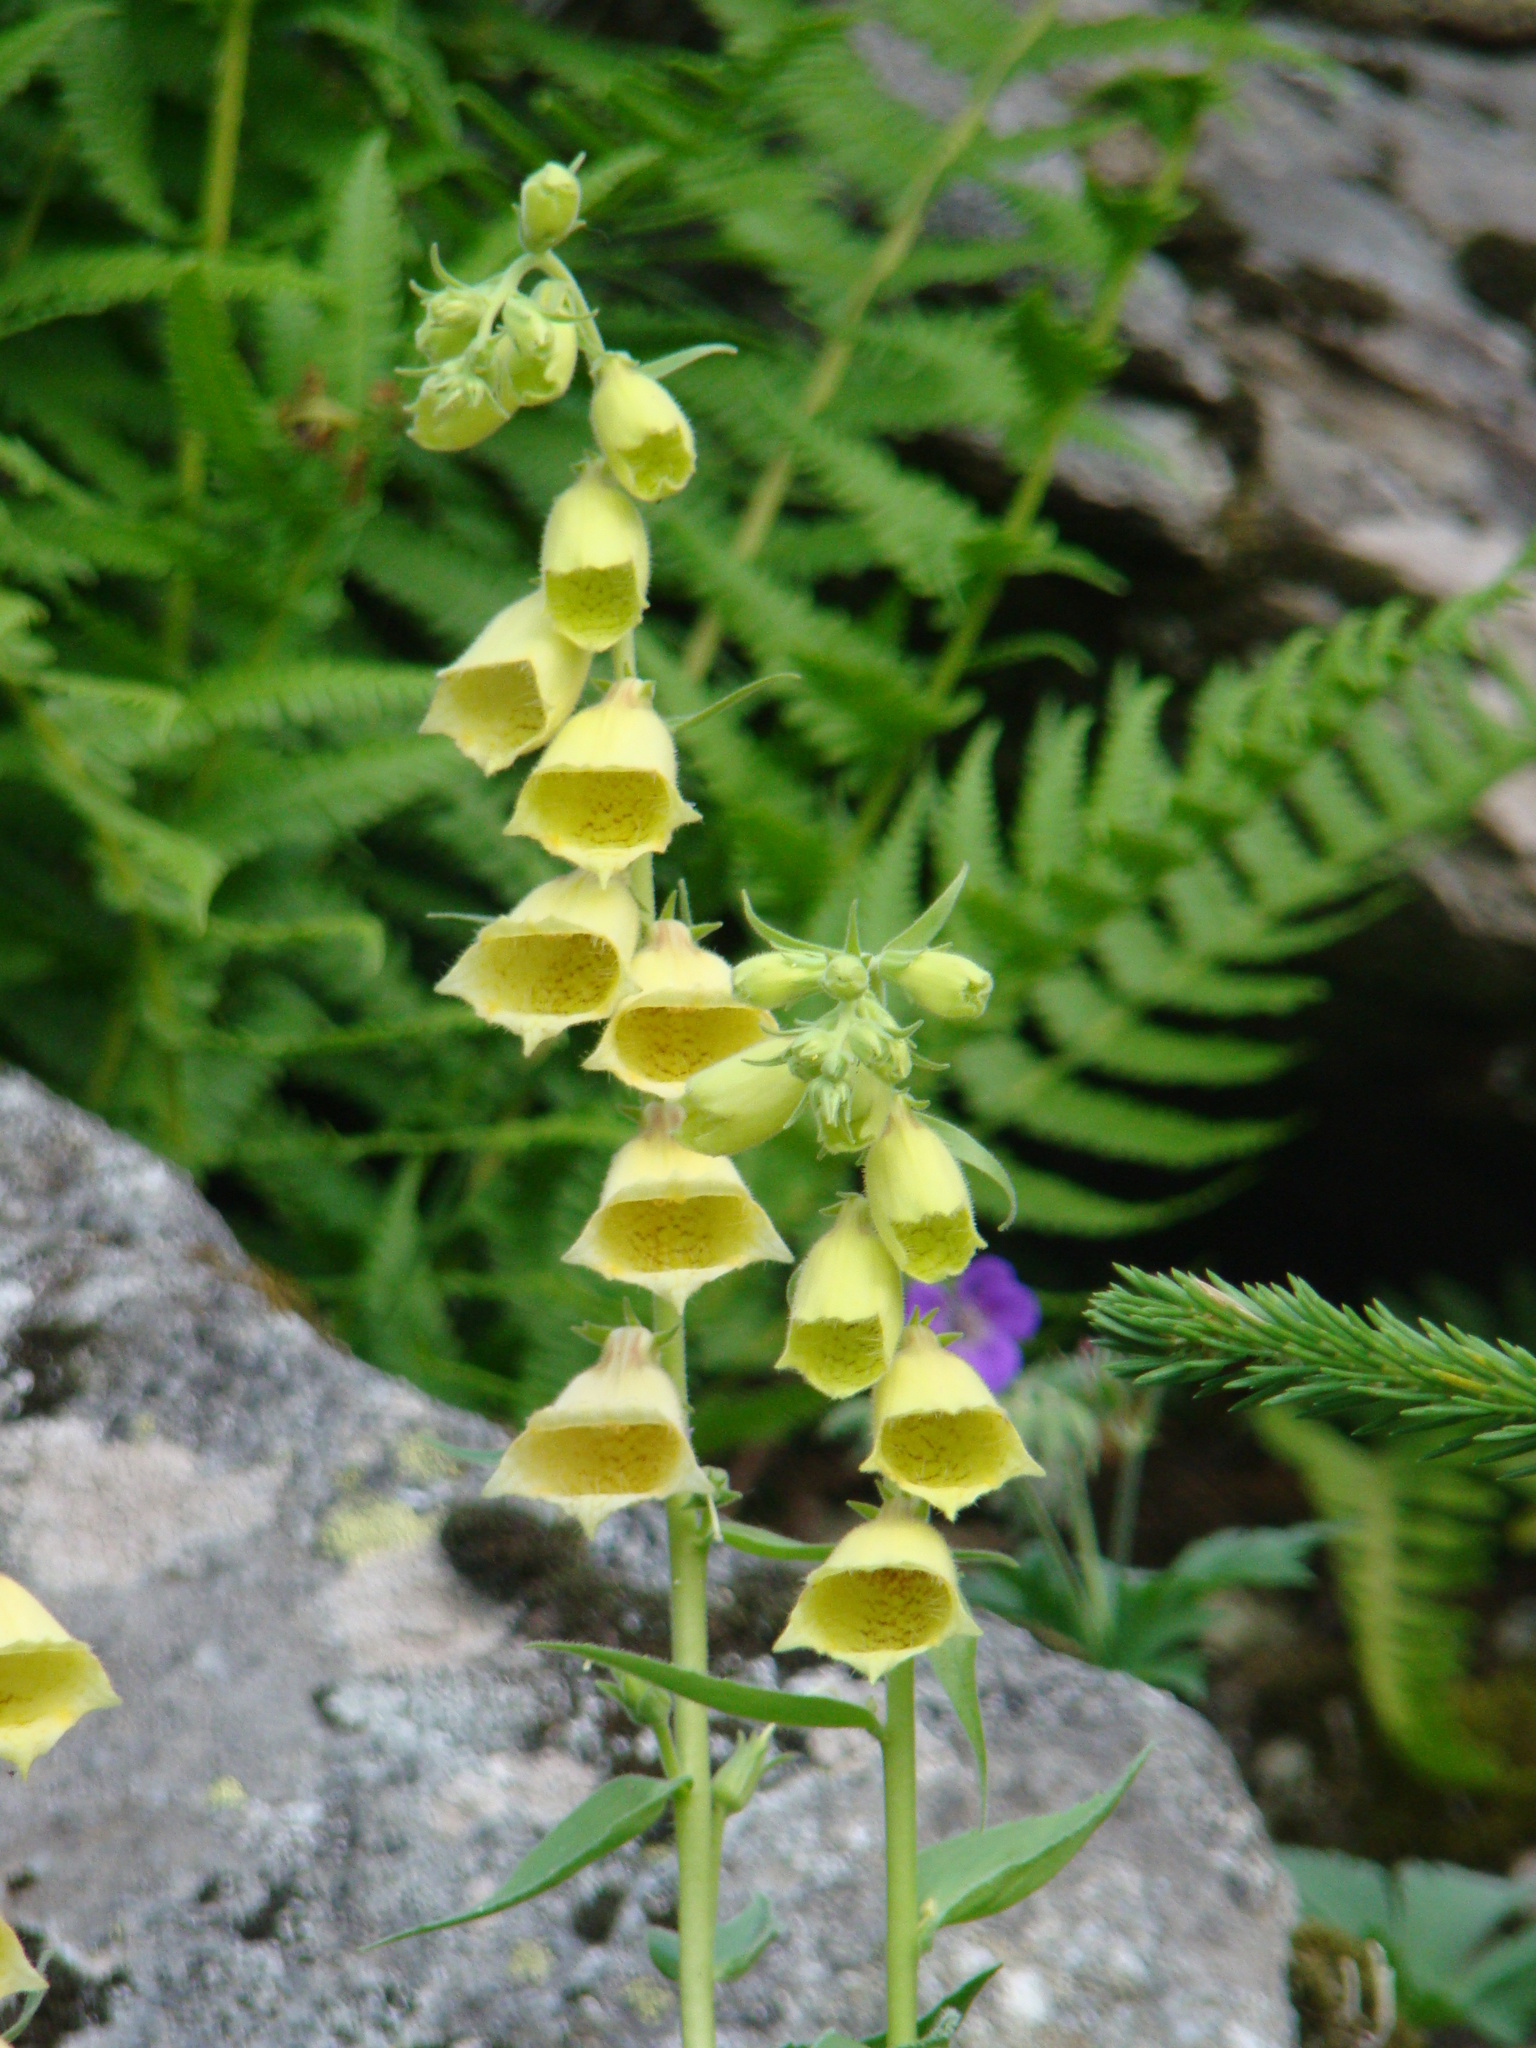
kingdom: Plantae
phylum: Tracheophyta
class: Magnoliopsida
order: Lamiales
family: Plantaginaceae
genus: Digitalis
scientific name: Digitalis grandiflora
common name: Yellow foxglove
